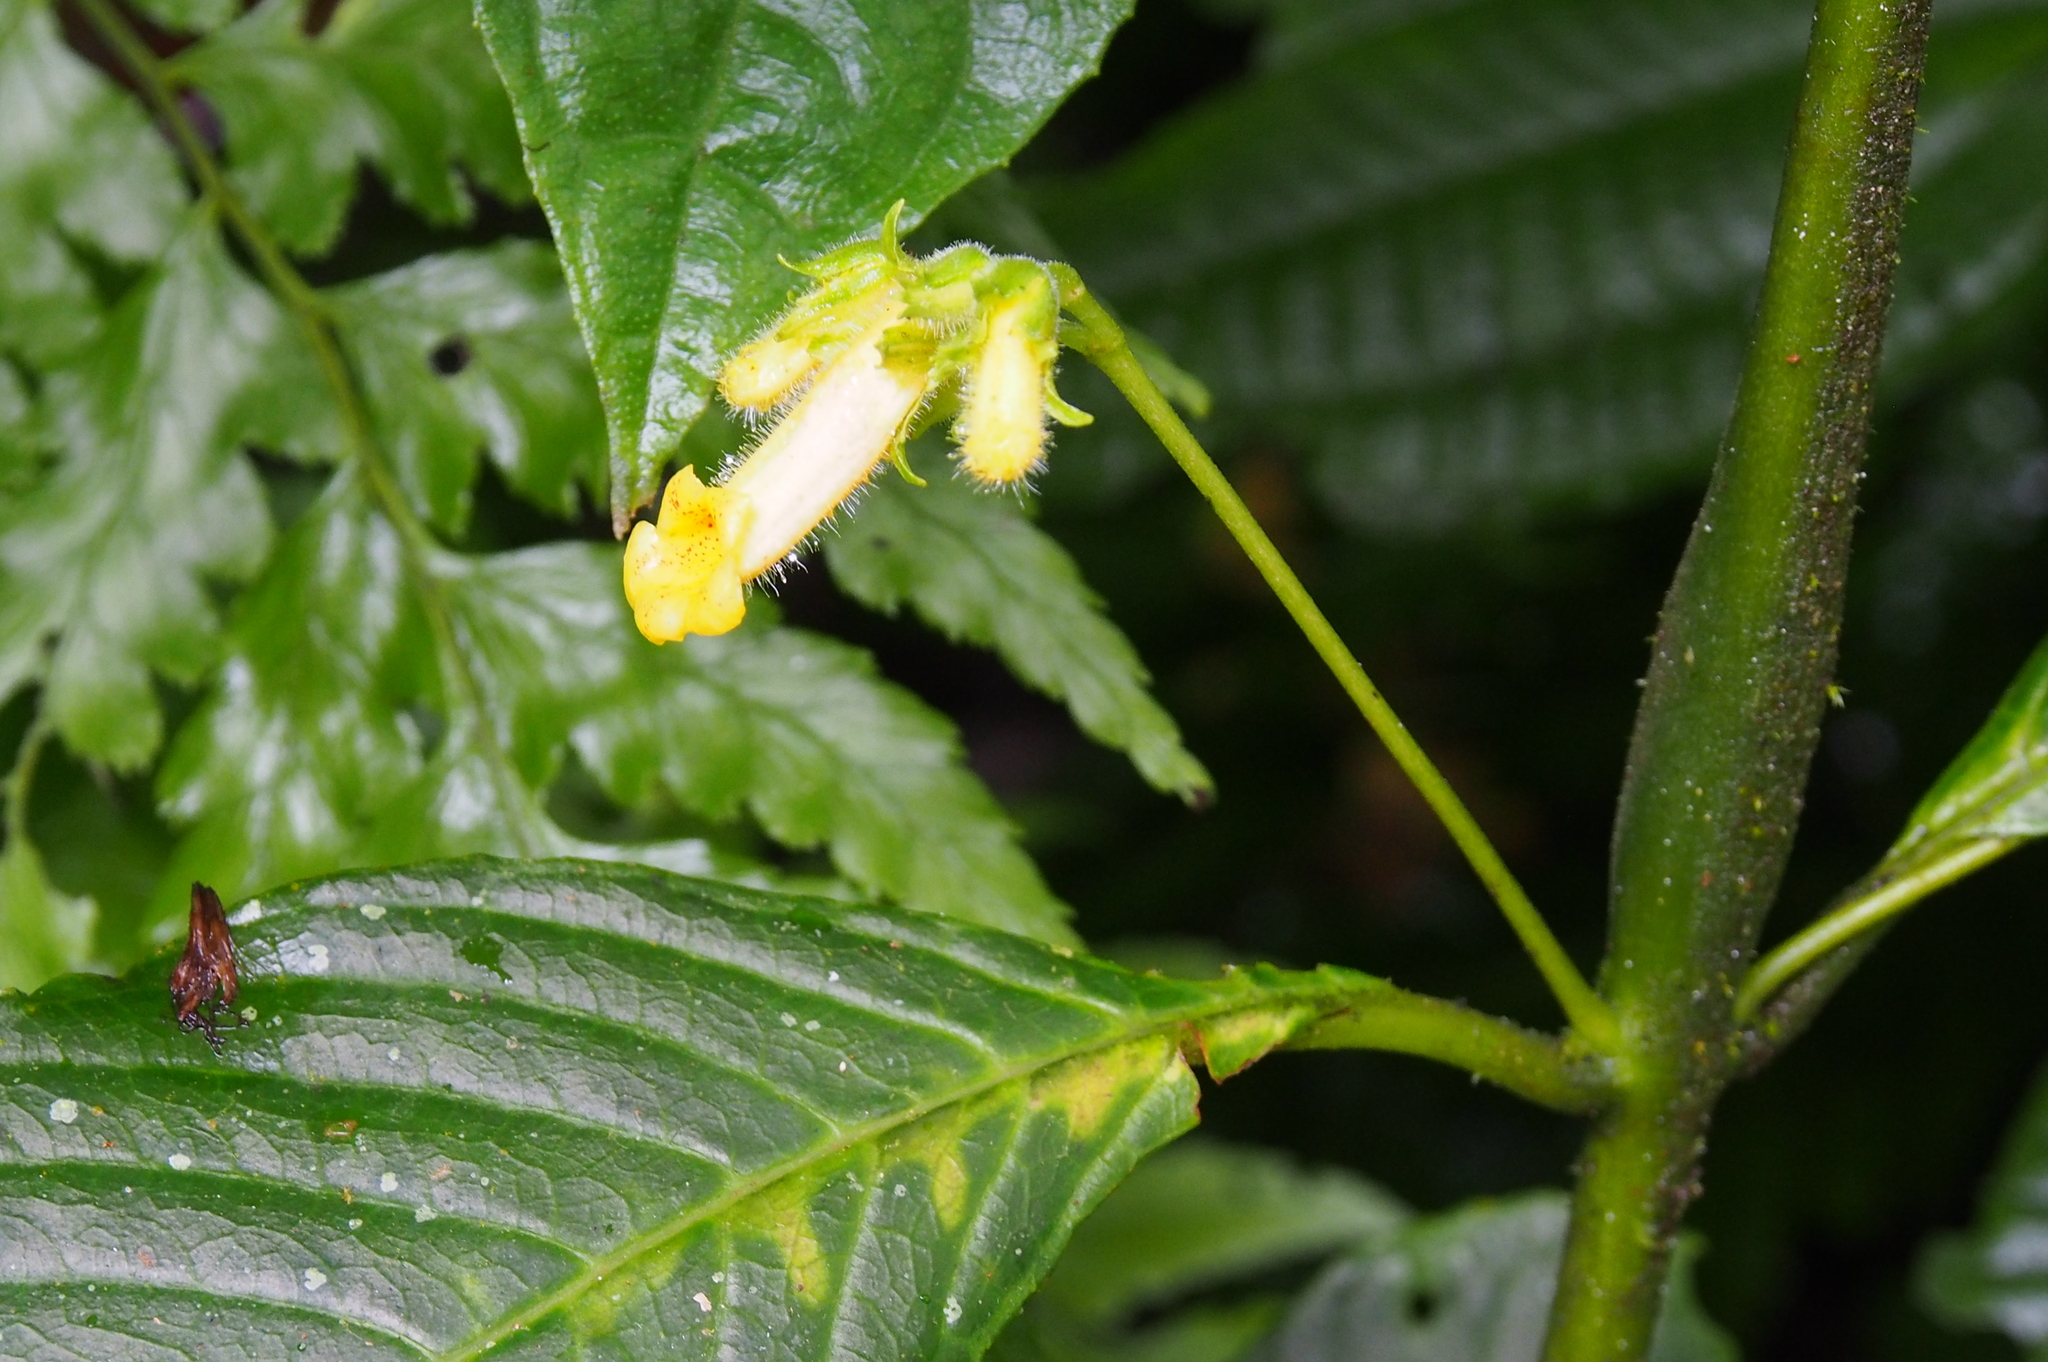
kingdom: Plantae
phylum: Tracheophyta
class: Magnoliopsida
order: Lamiales
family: Gesneriaceae
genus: Gasteranthus
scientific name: Gasteranthus wendlandianus
